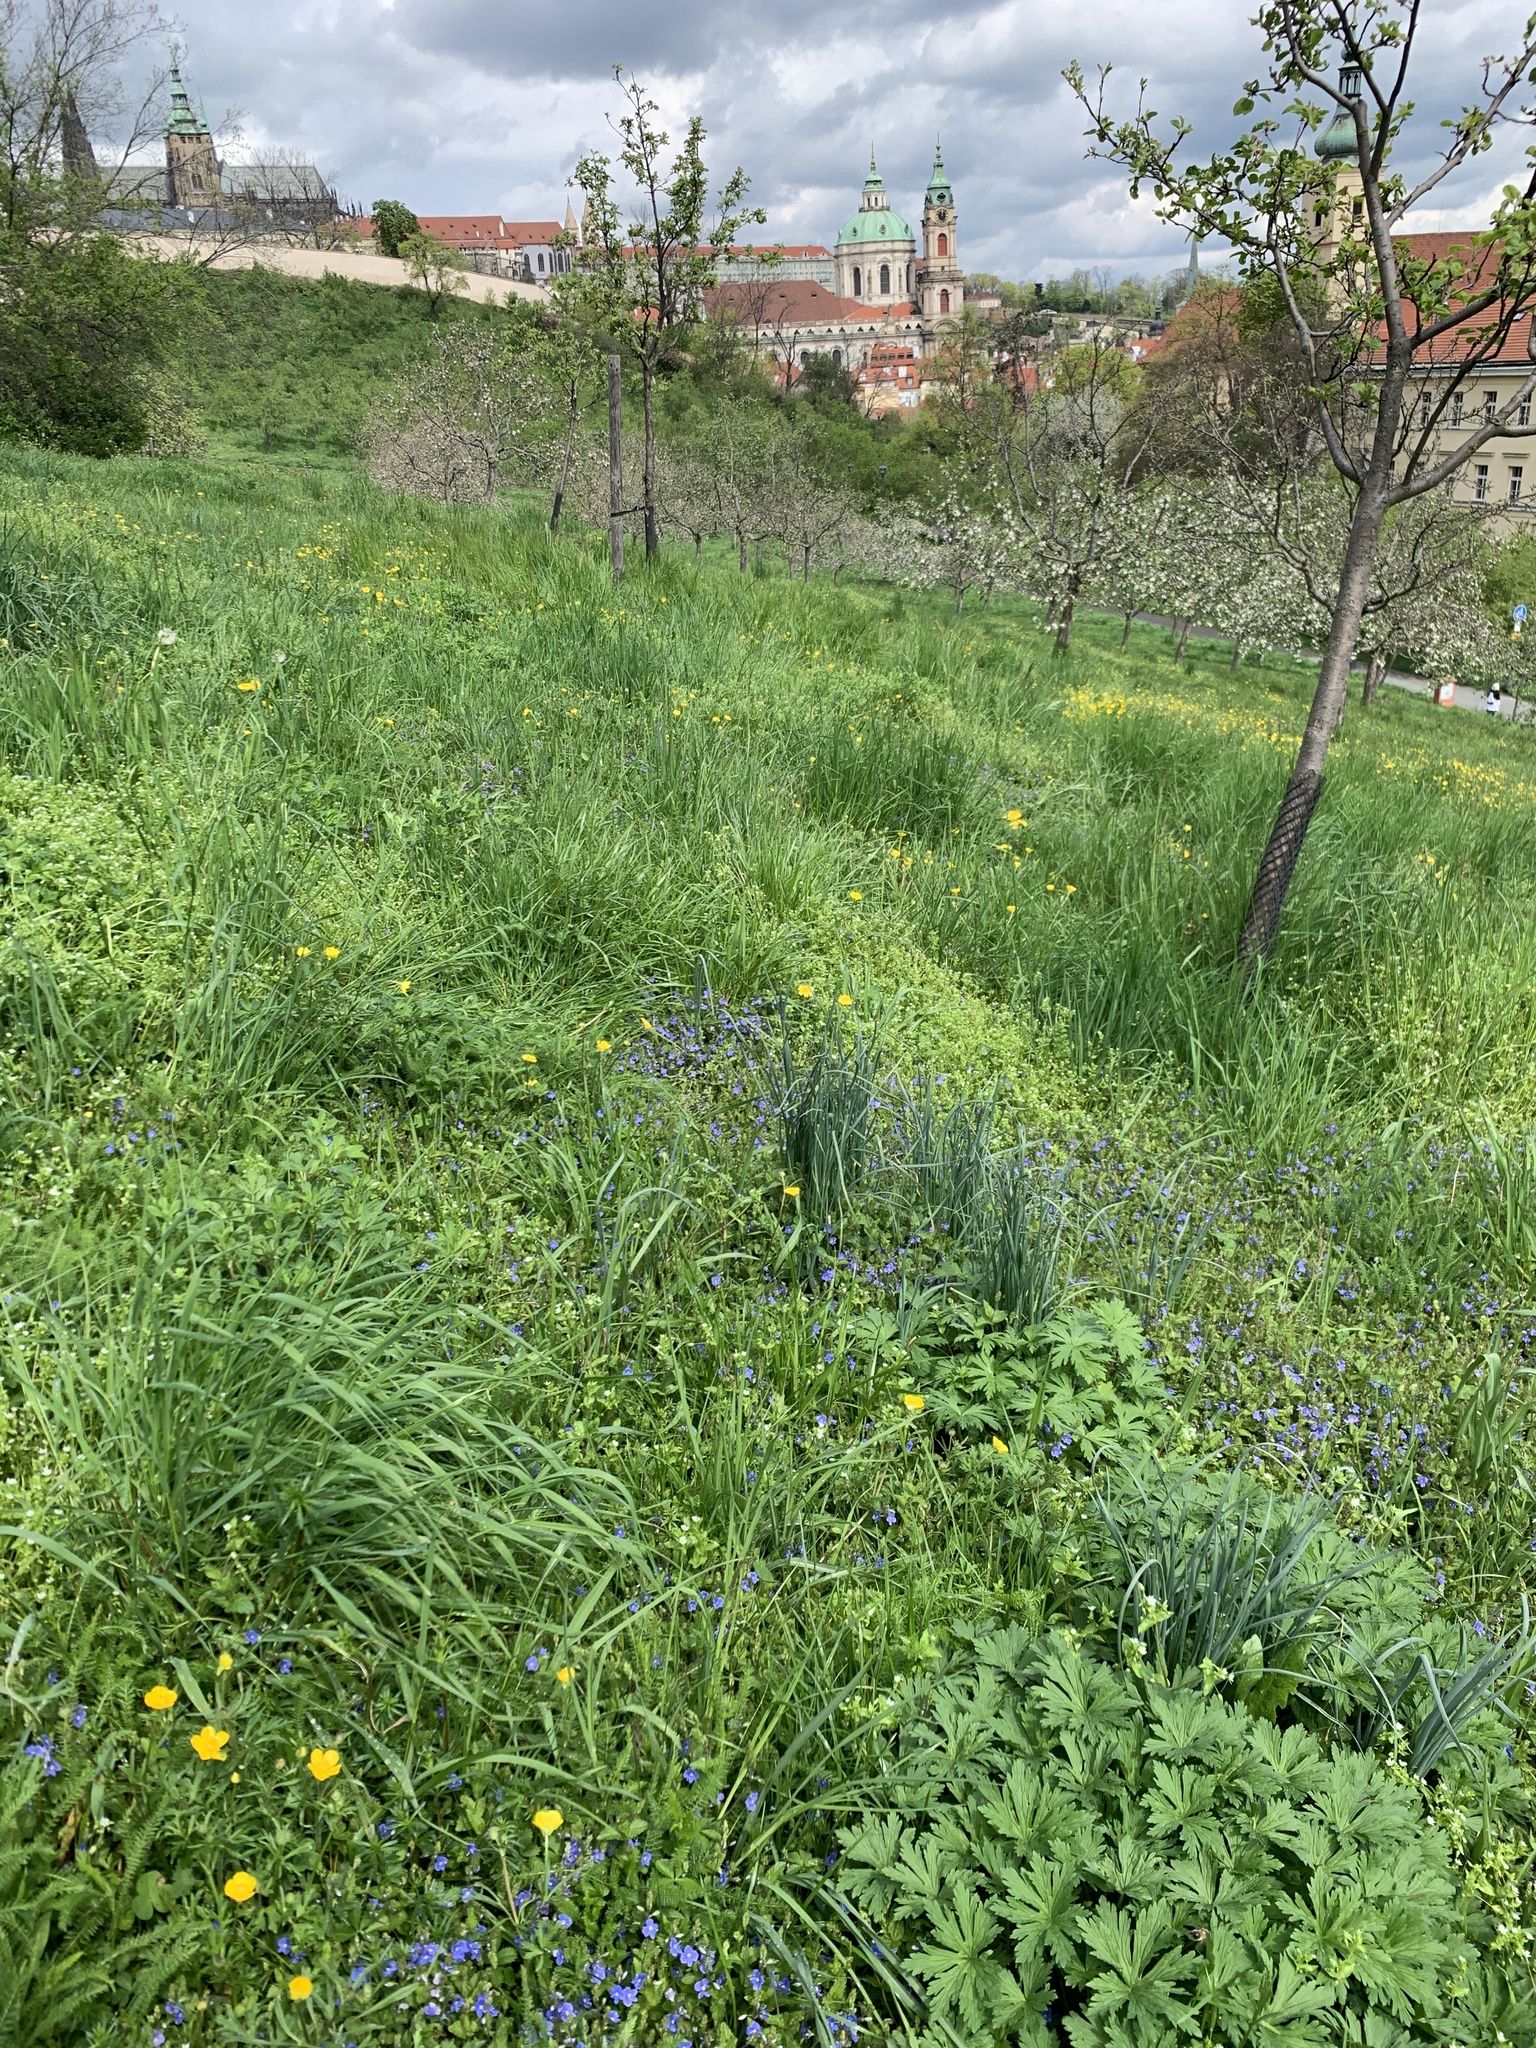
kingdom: Plantae
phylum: Tracheophyta
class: Magnoliopsida
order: Lamiales
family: Plantaginaceae
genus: Veronica
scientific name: Veronica chamaedrys
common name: Germander speedwell
